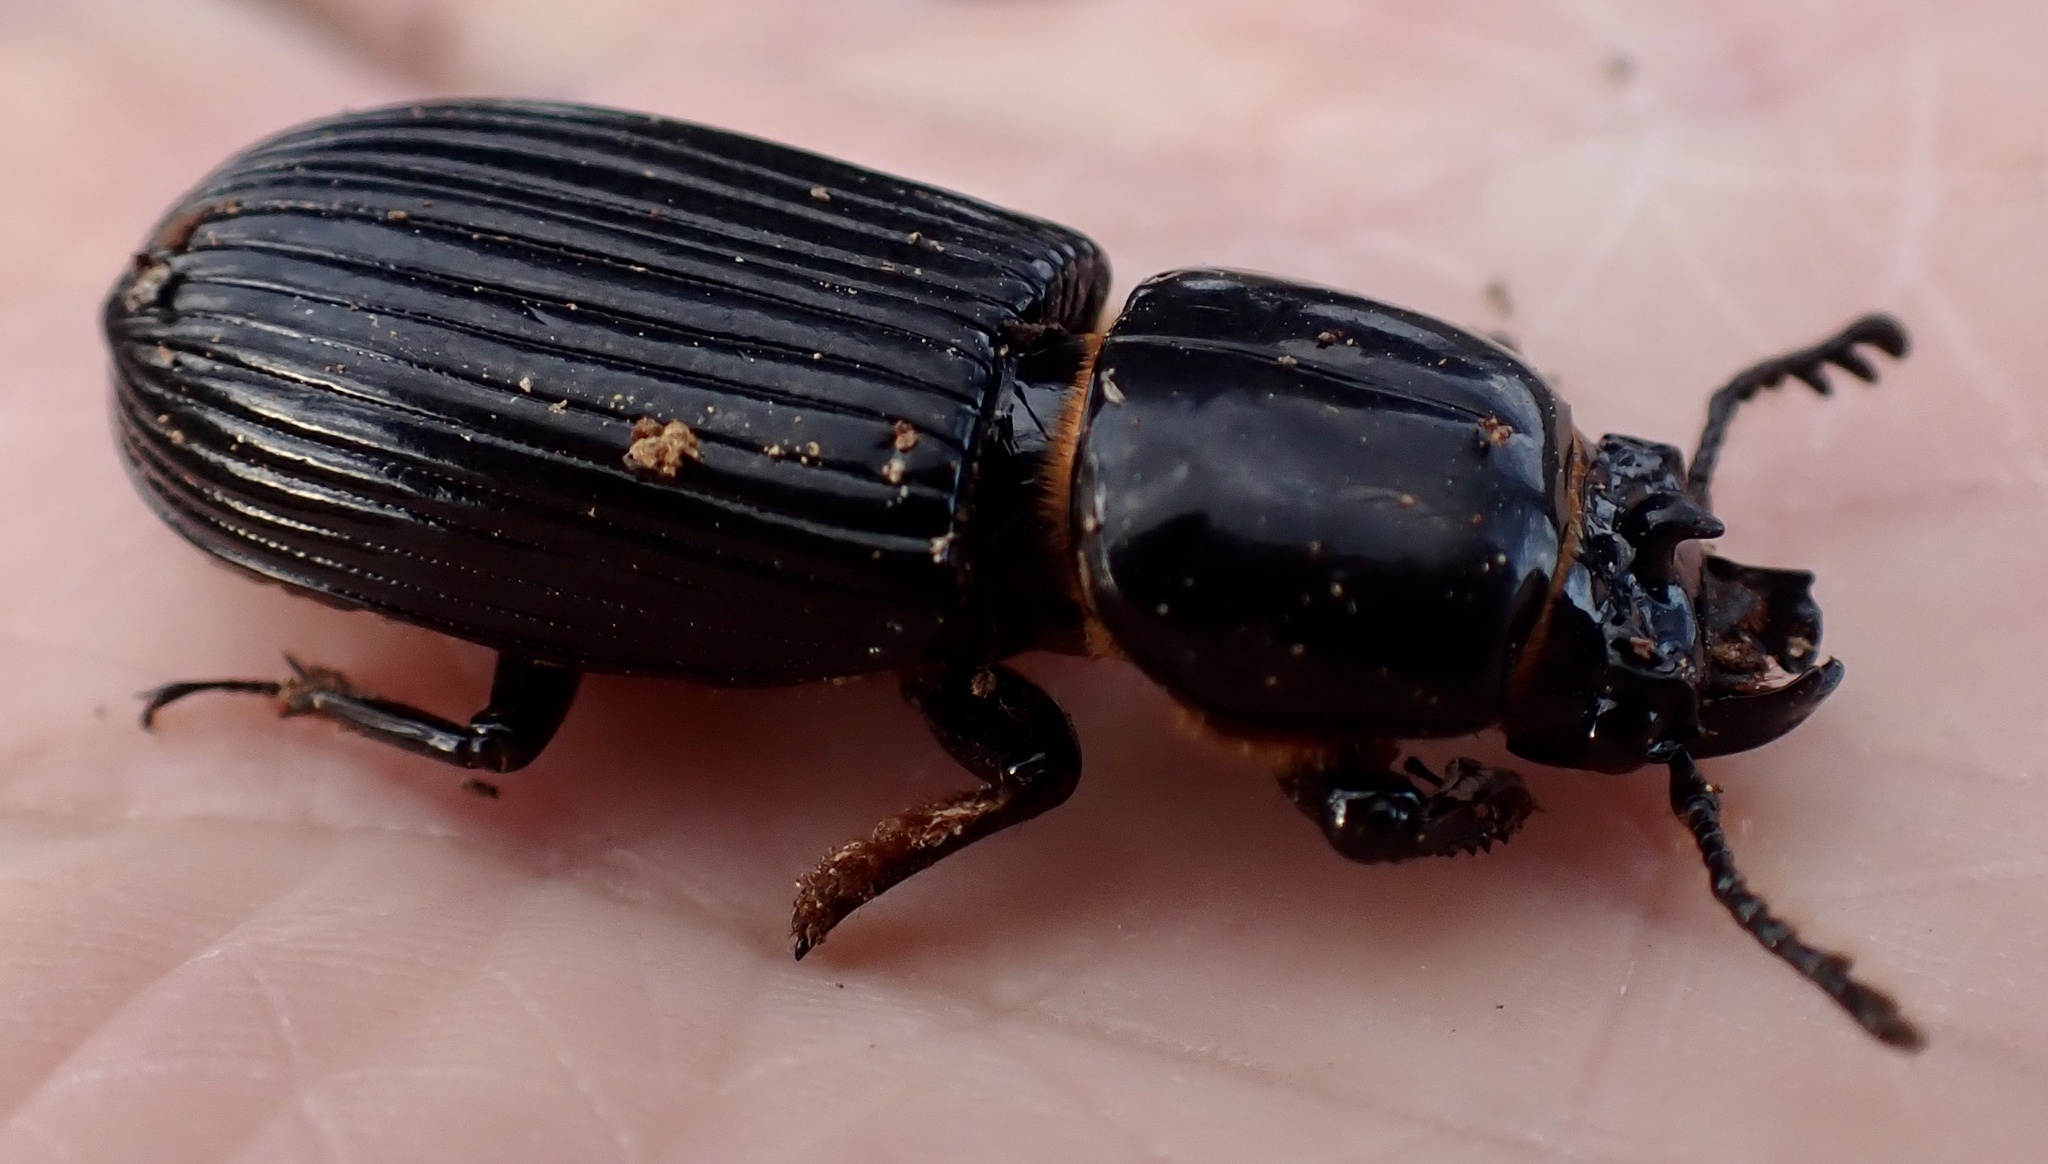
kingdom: Animalia
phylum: Arthropoda
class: Insecta
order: Coleoptera
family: Passalidae
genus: Odontotaenius
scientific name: Odontotaenius disjunctus
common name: Patent leather beetle
